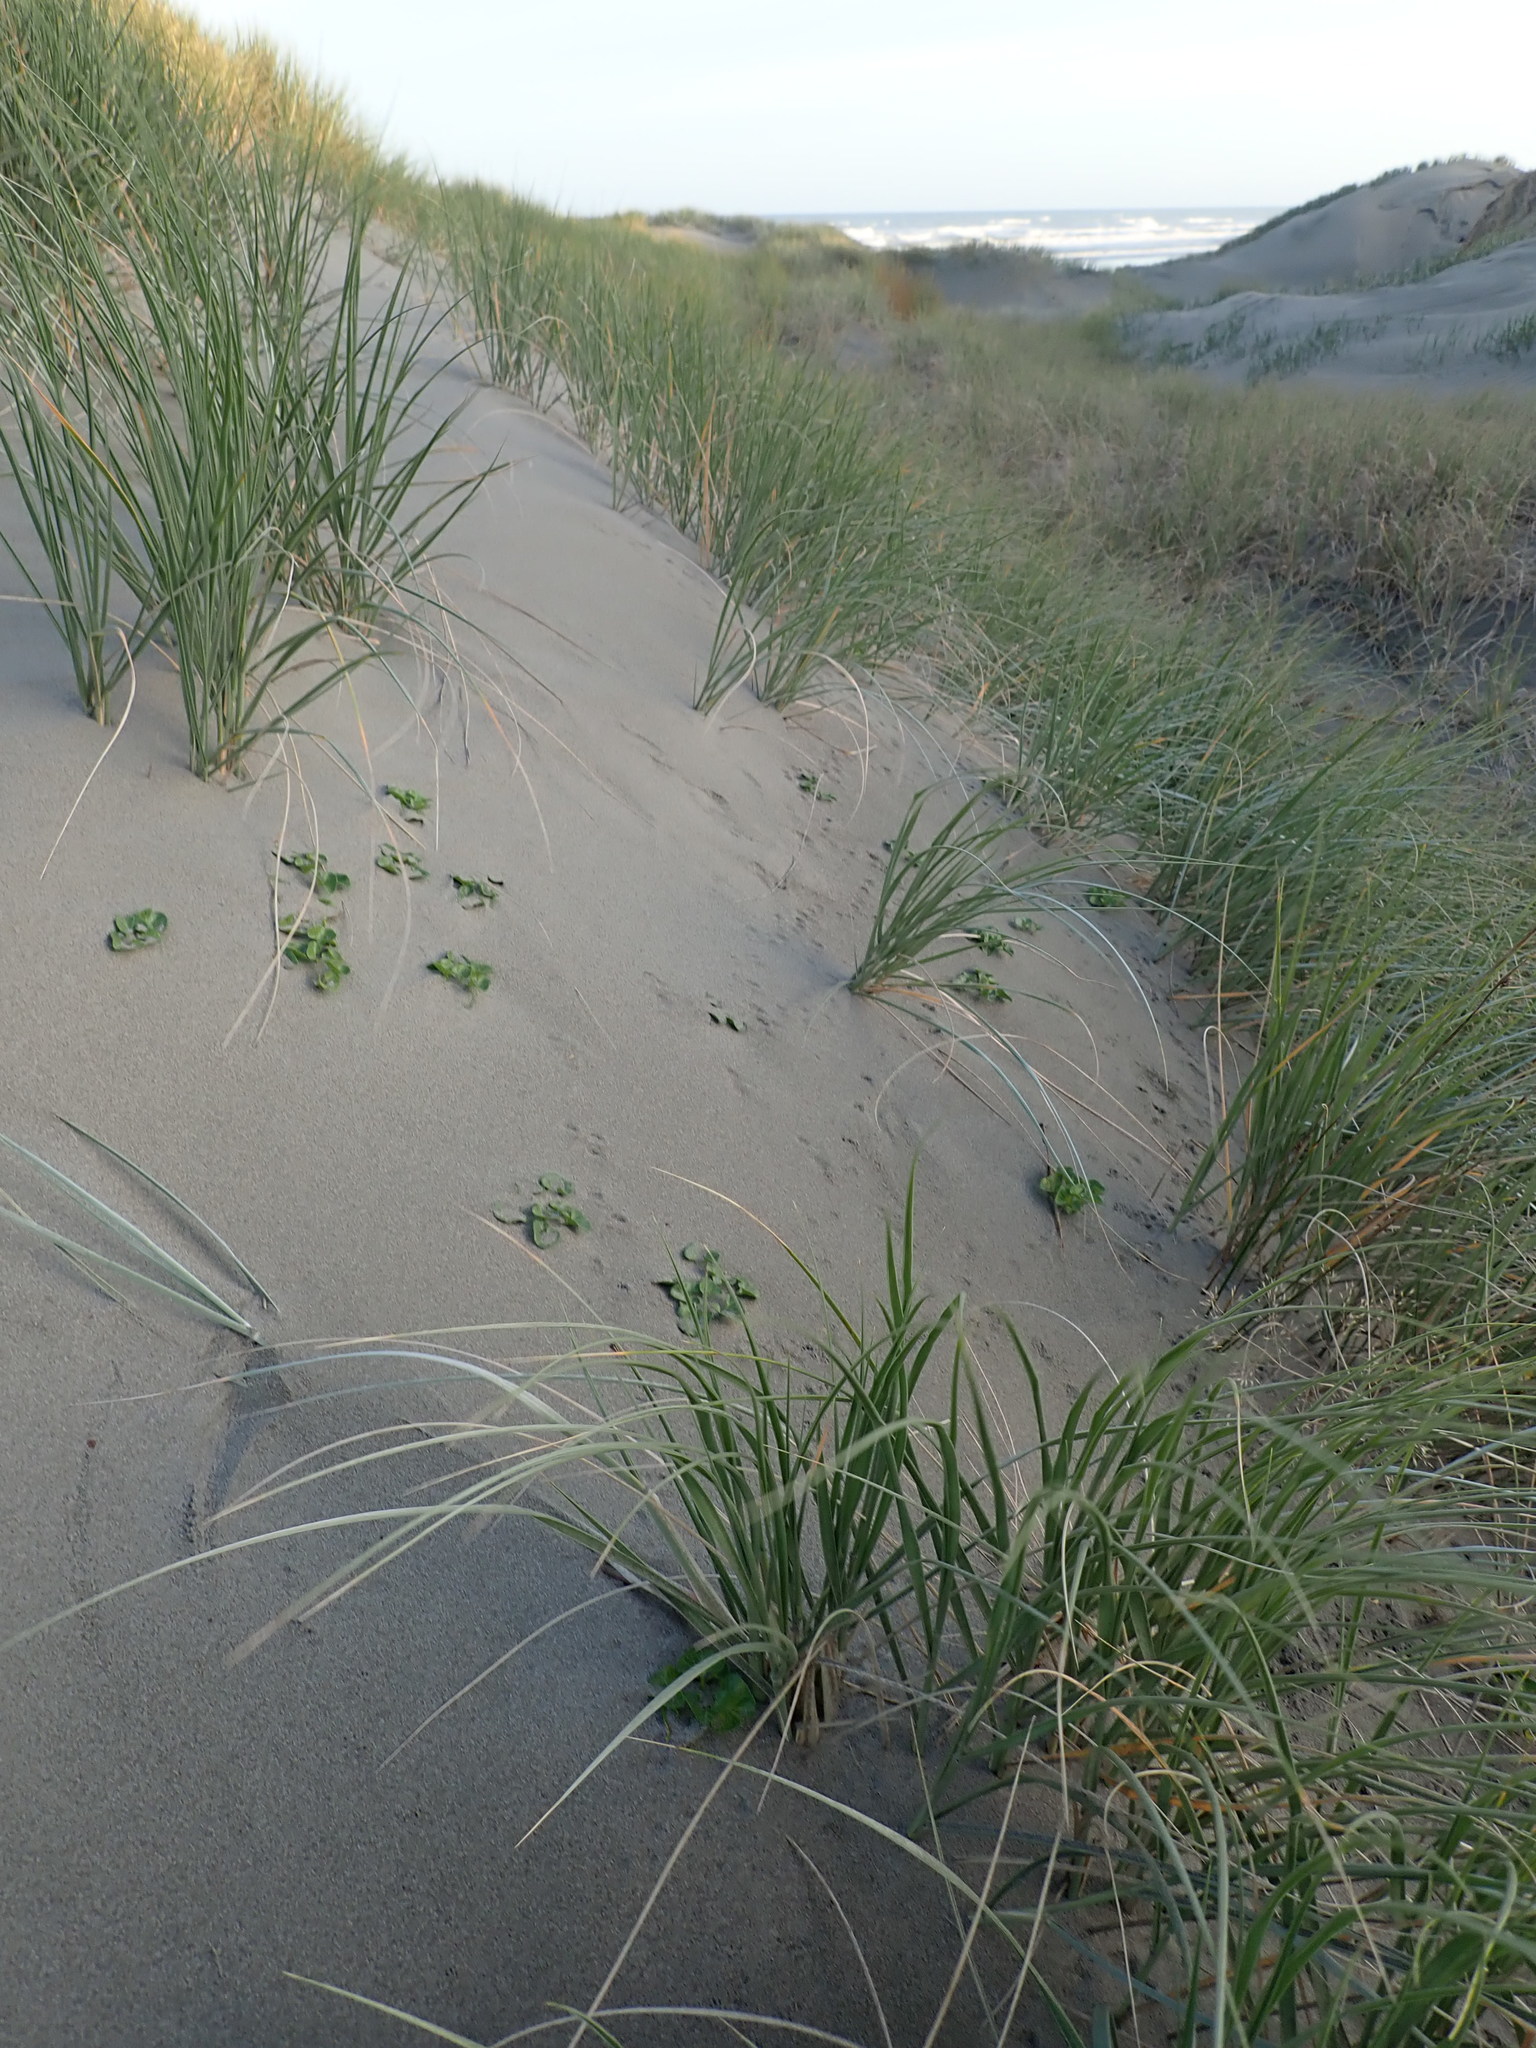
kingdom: Plantae
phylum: Tracheophyta
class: Magnoliopsida
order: Solanales
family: Convolvulaceae
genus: Calystegia
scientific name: Calystegia soldanella
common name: Sea bindweed
